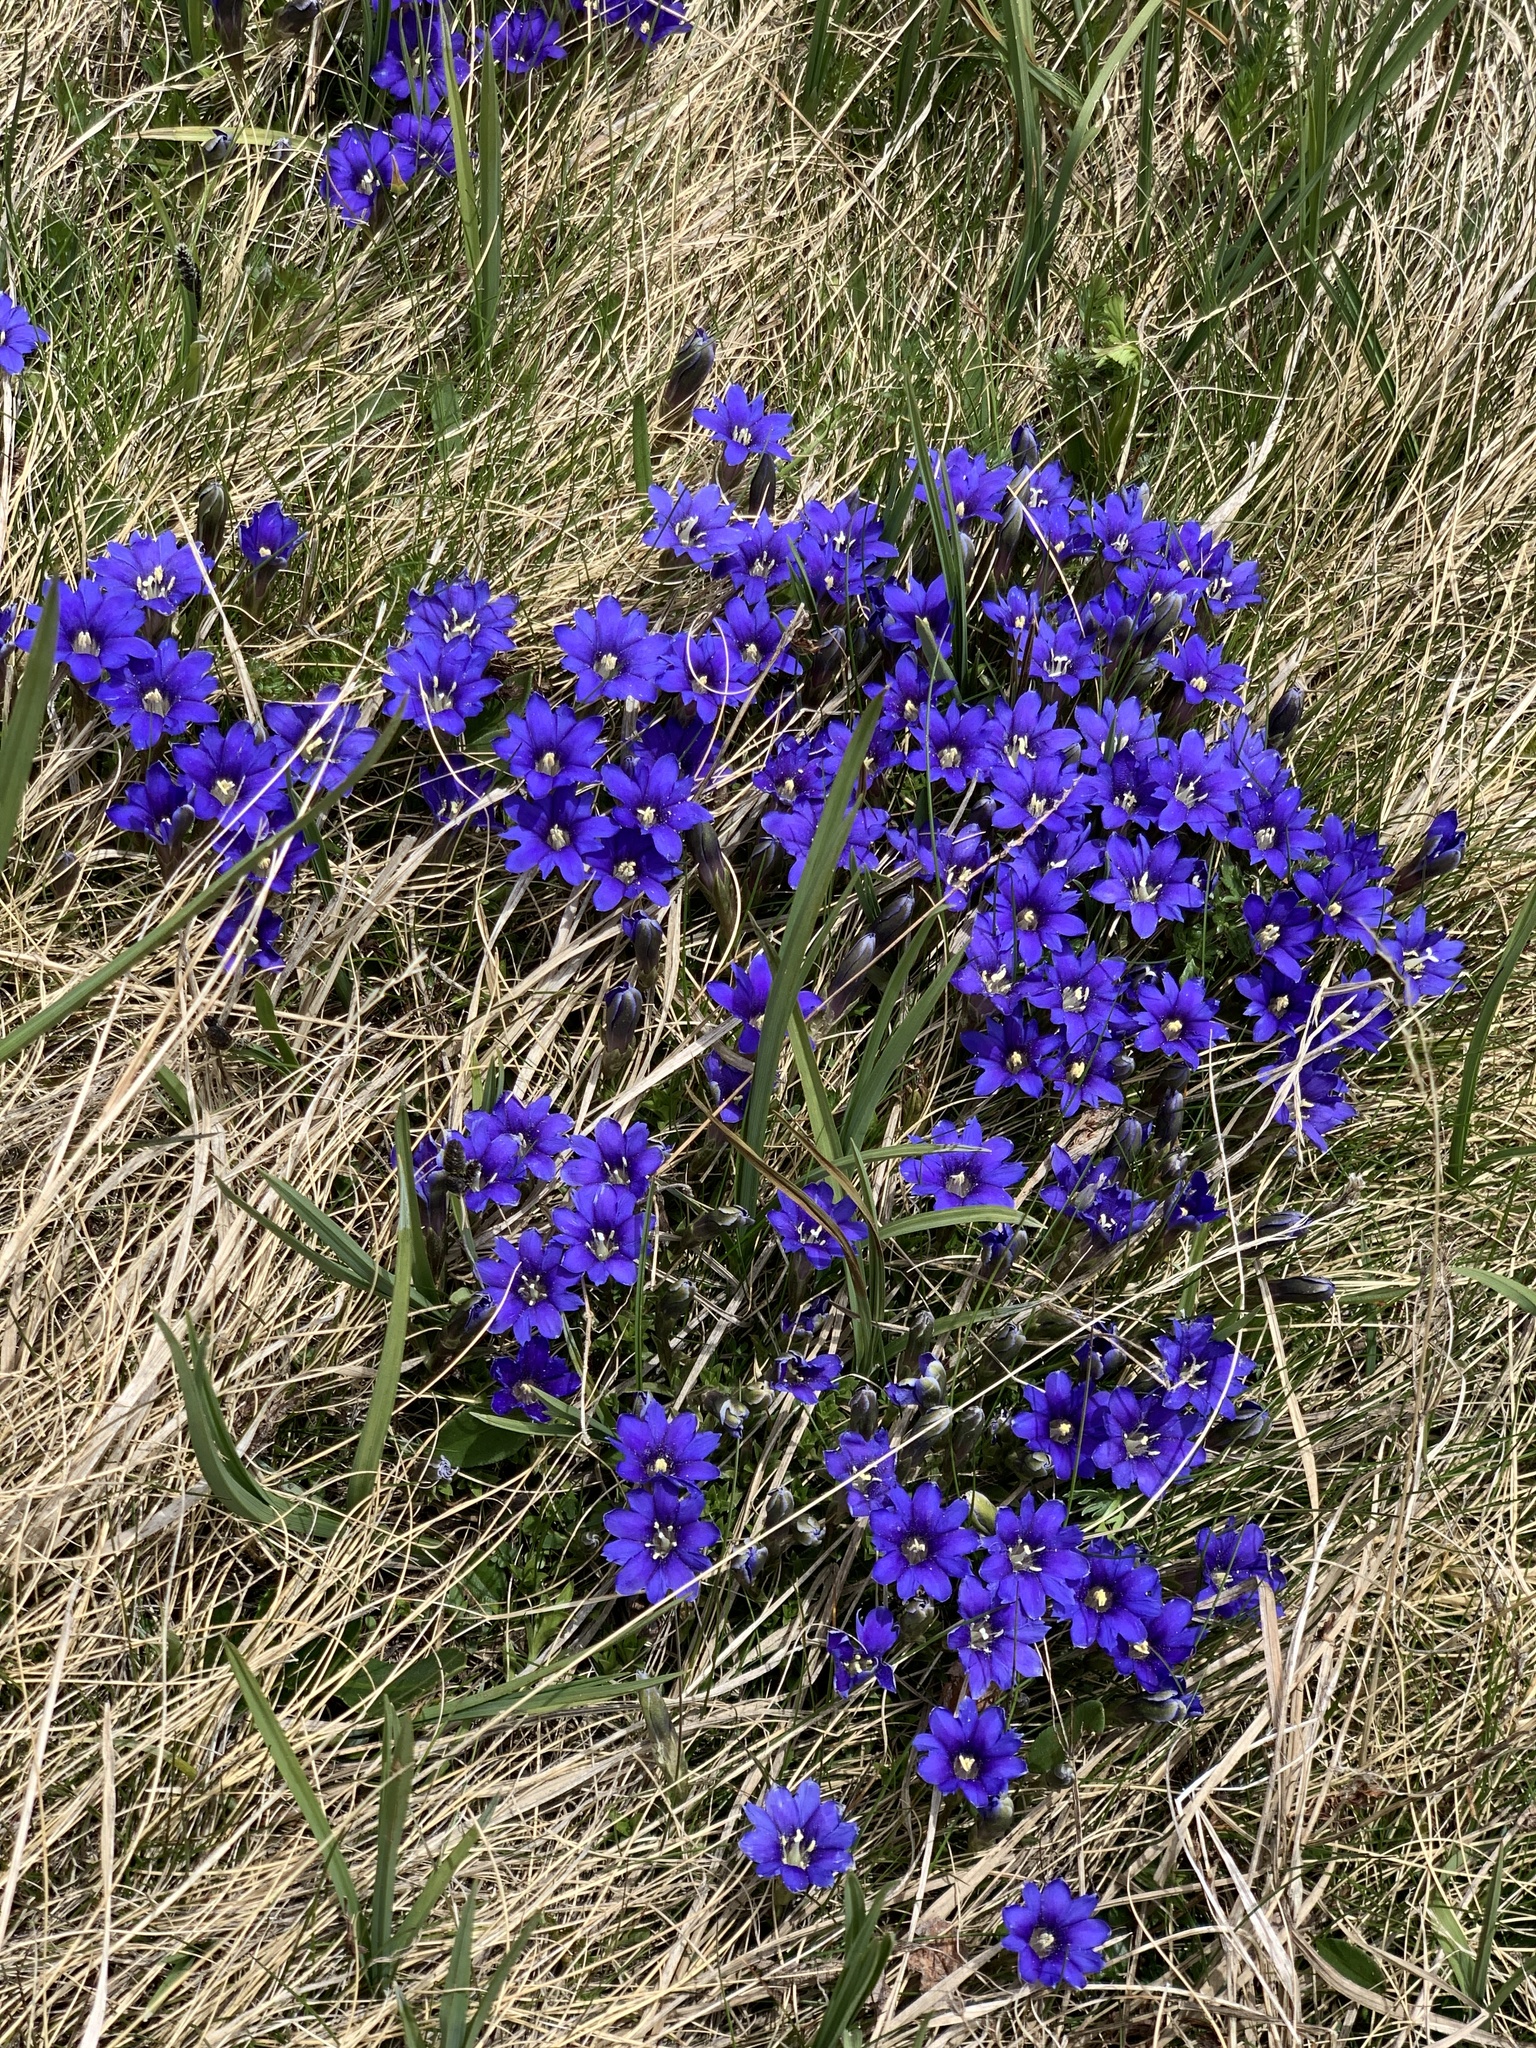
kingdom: Plantae
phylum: Tracheophyta
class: Magnoliopsida
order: Gentianales
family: Gentianaceae
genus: Gentiana
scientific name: Gentiana dshimilensis
